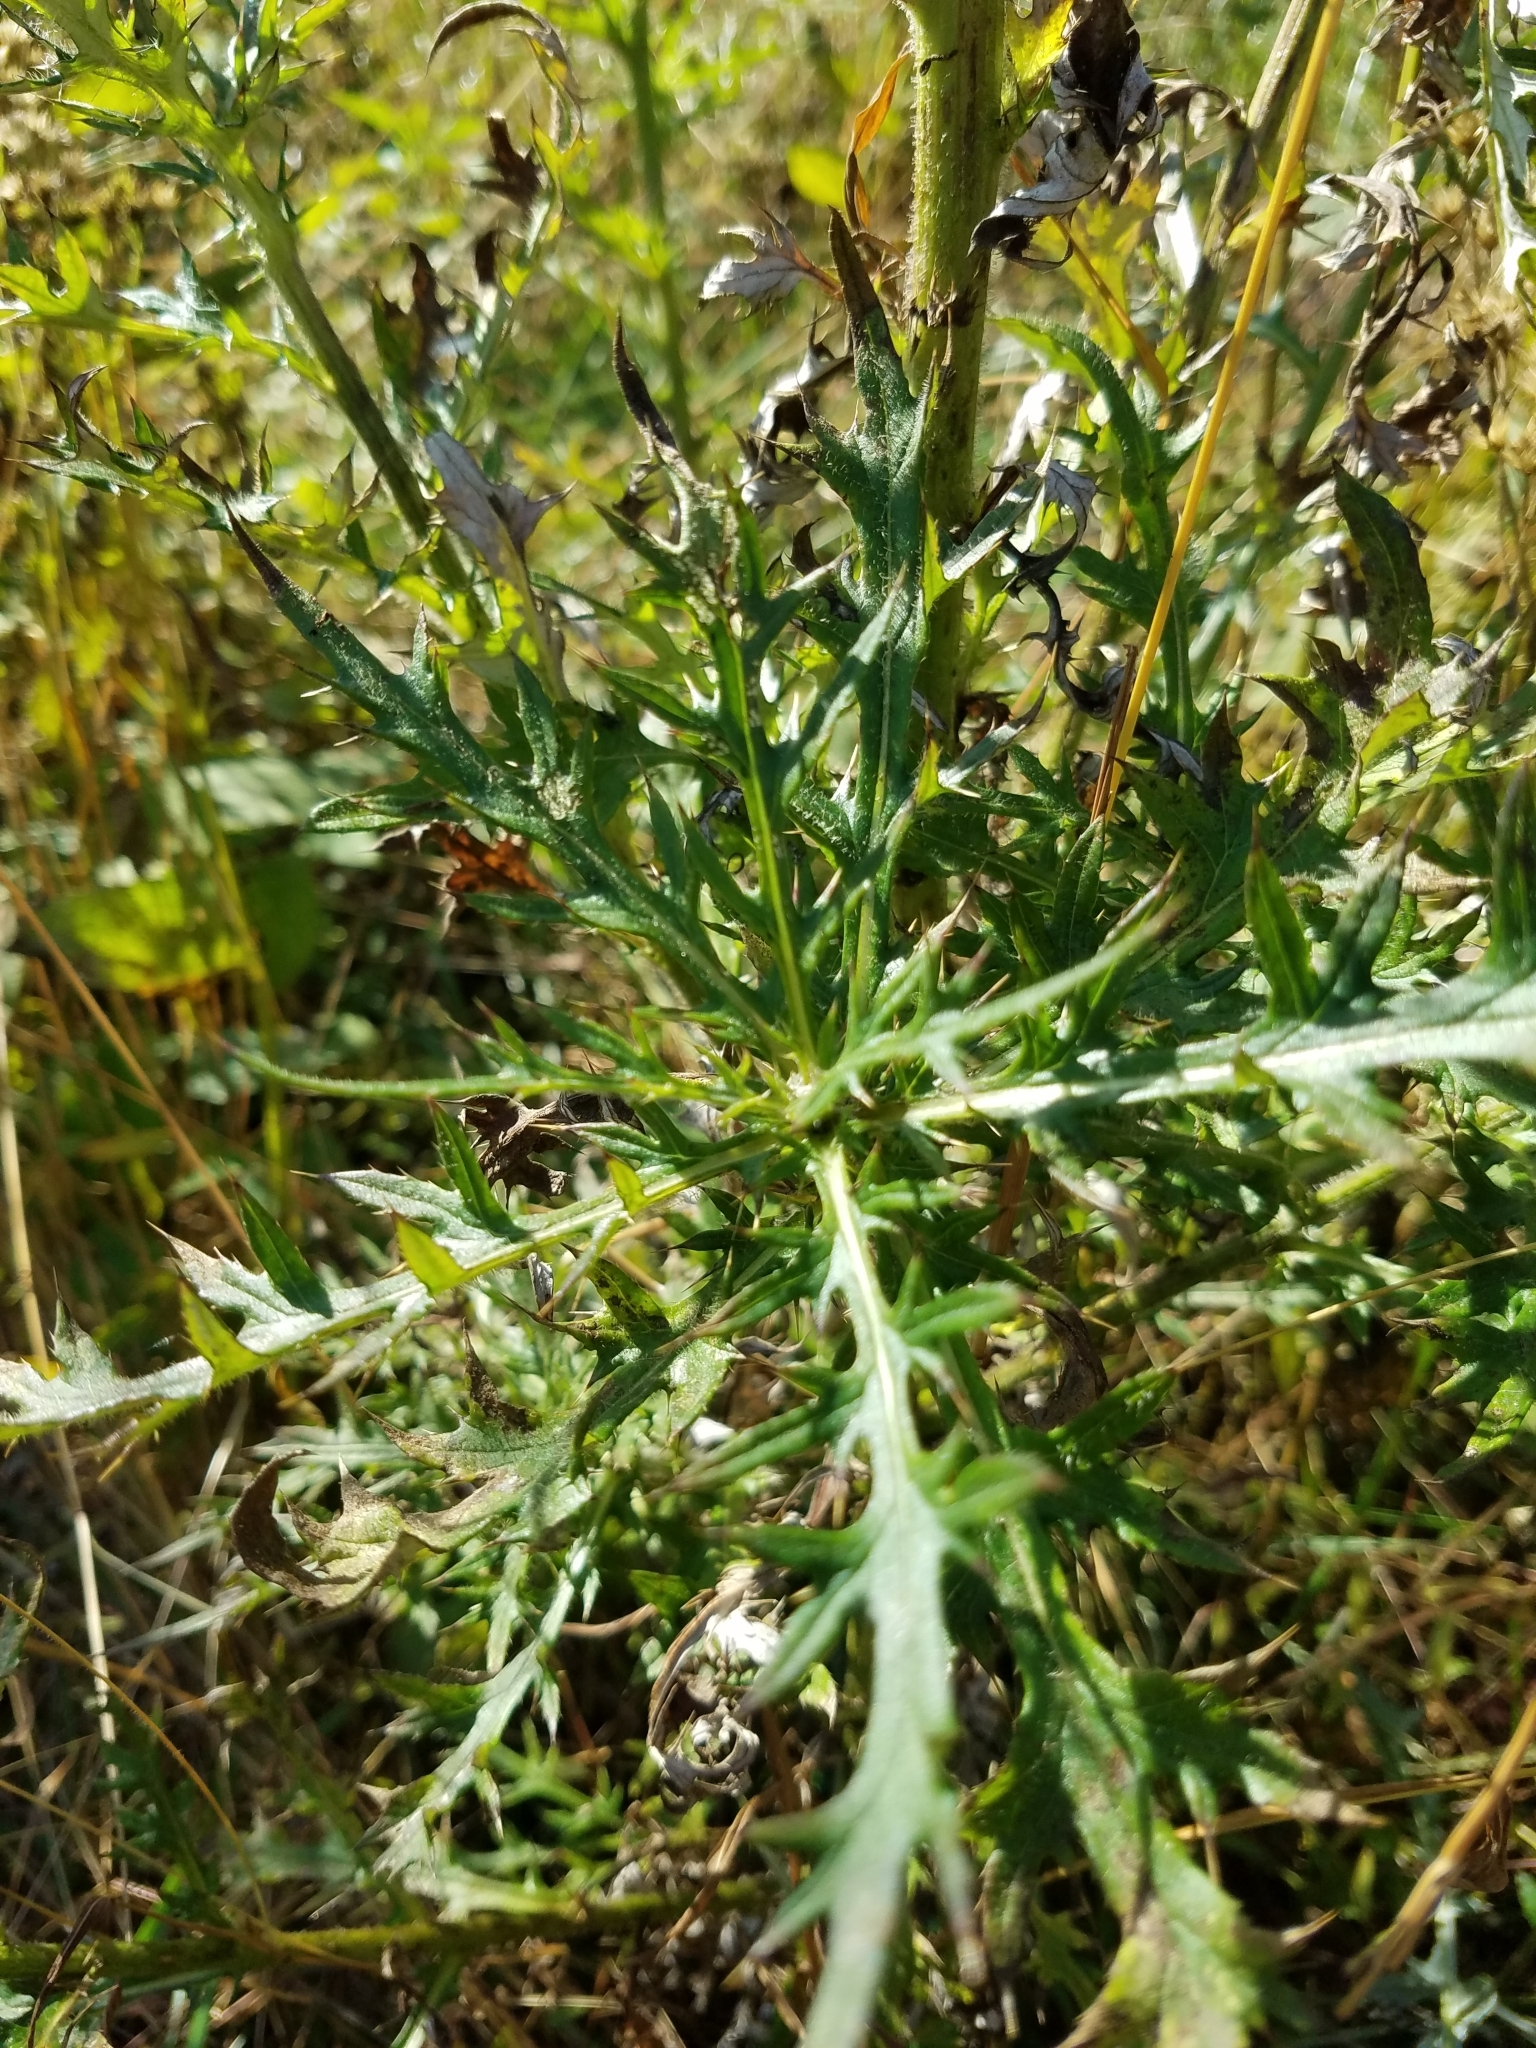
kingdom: Plantae
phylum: Tracheophyta
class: Magnoliopsida
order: Asterales
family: Asteraceae
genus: Cirsium
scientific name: Cirsium discolor
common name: Field thistle
